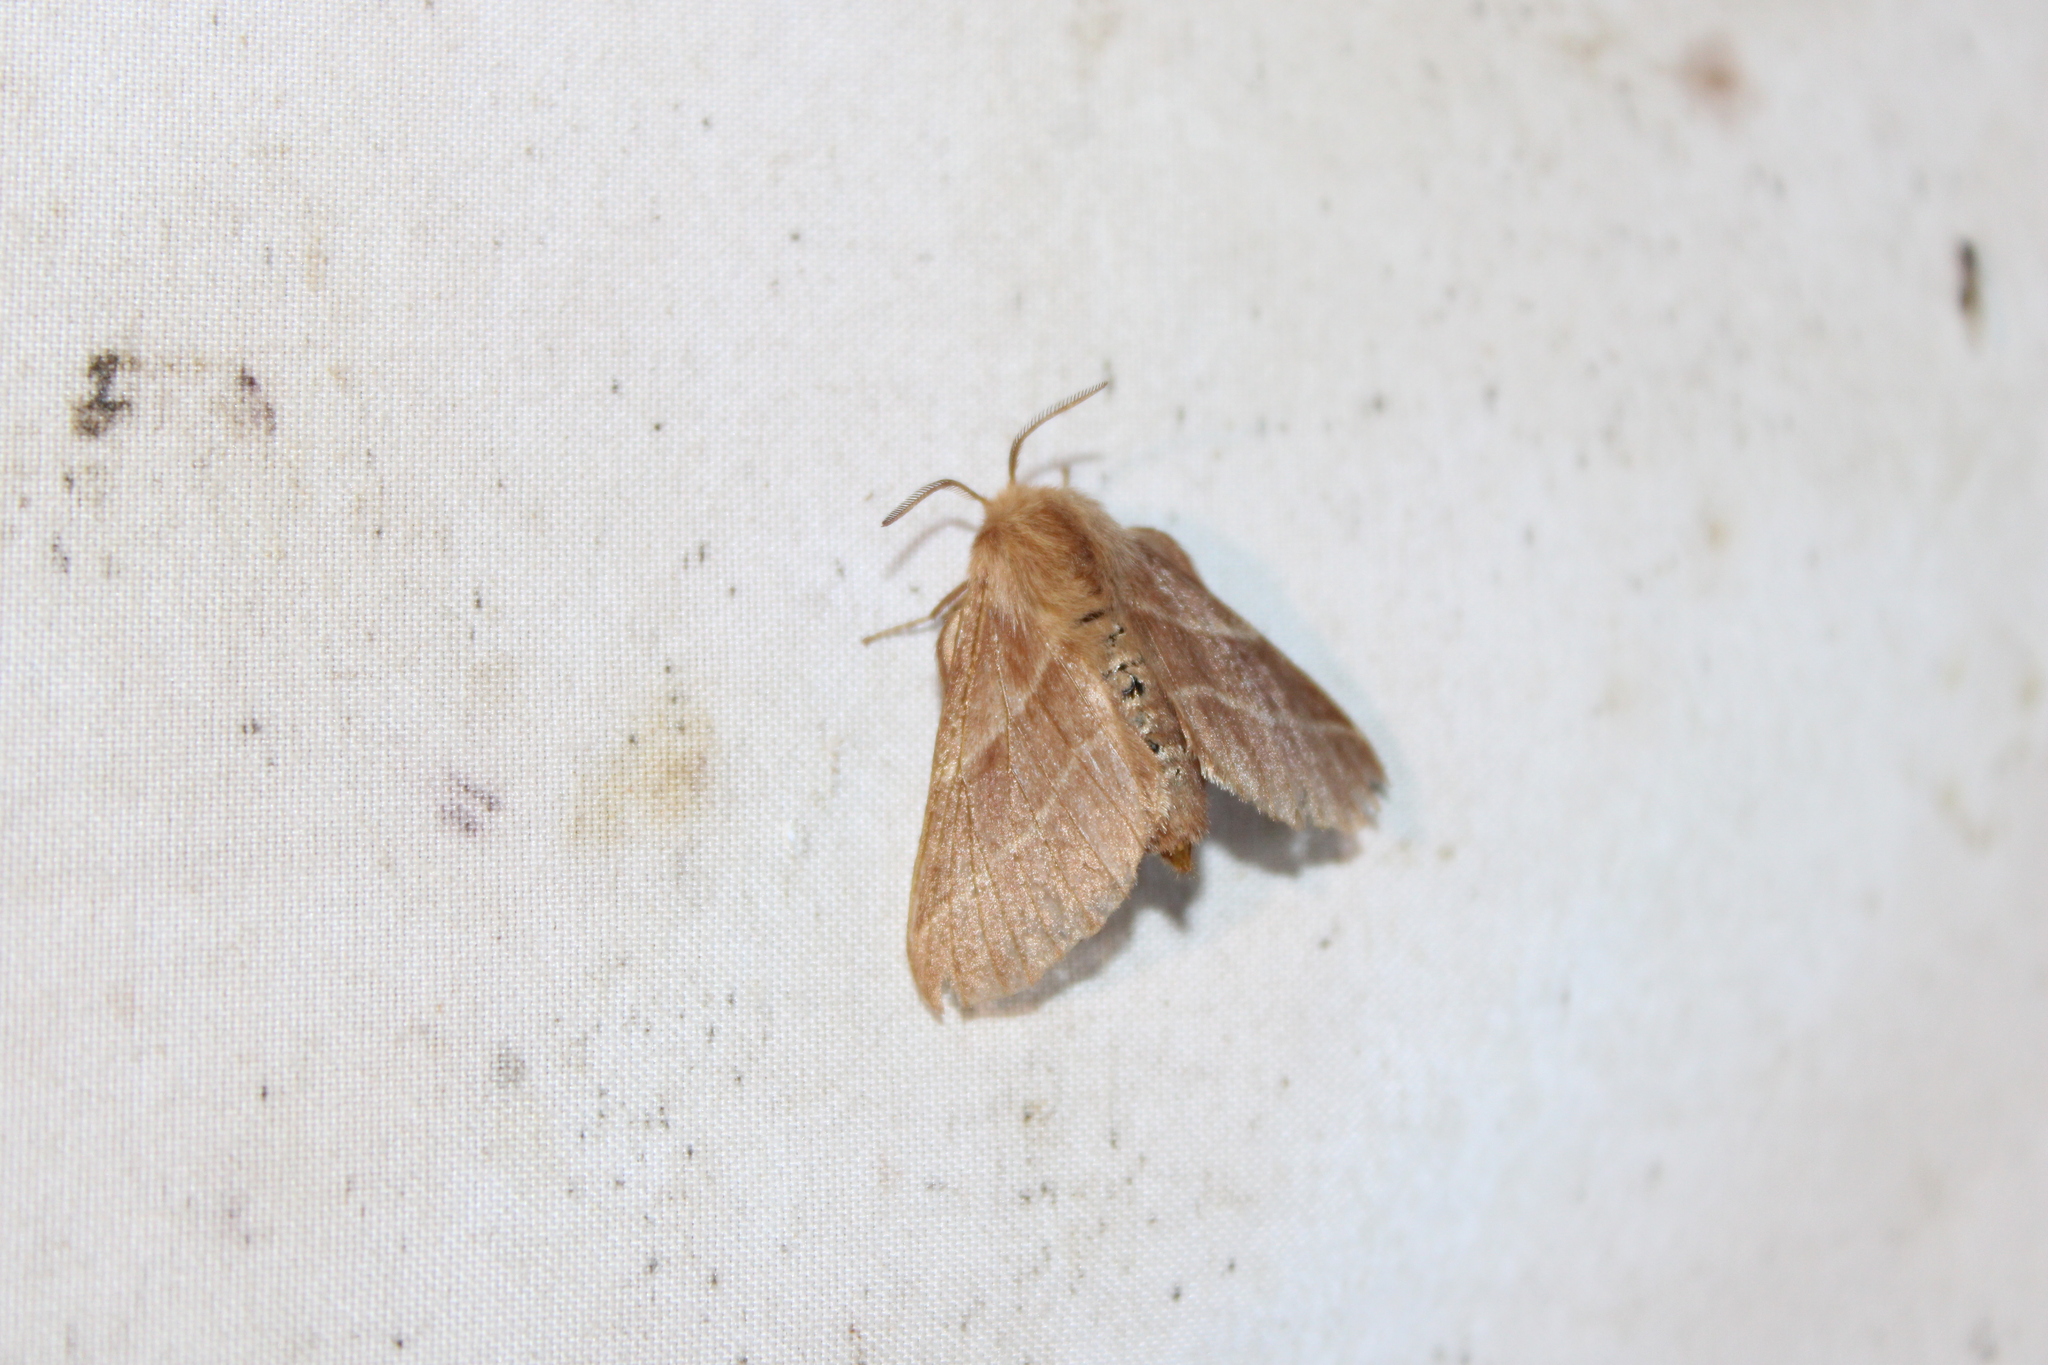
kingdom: Animalia
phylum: Arthropoda
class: Insecta
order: Lepidoptera
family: Lasiocampidae
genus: Malacosoma
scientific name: Malacosoma americana
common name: Eastern tent caterpillar moth
